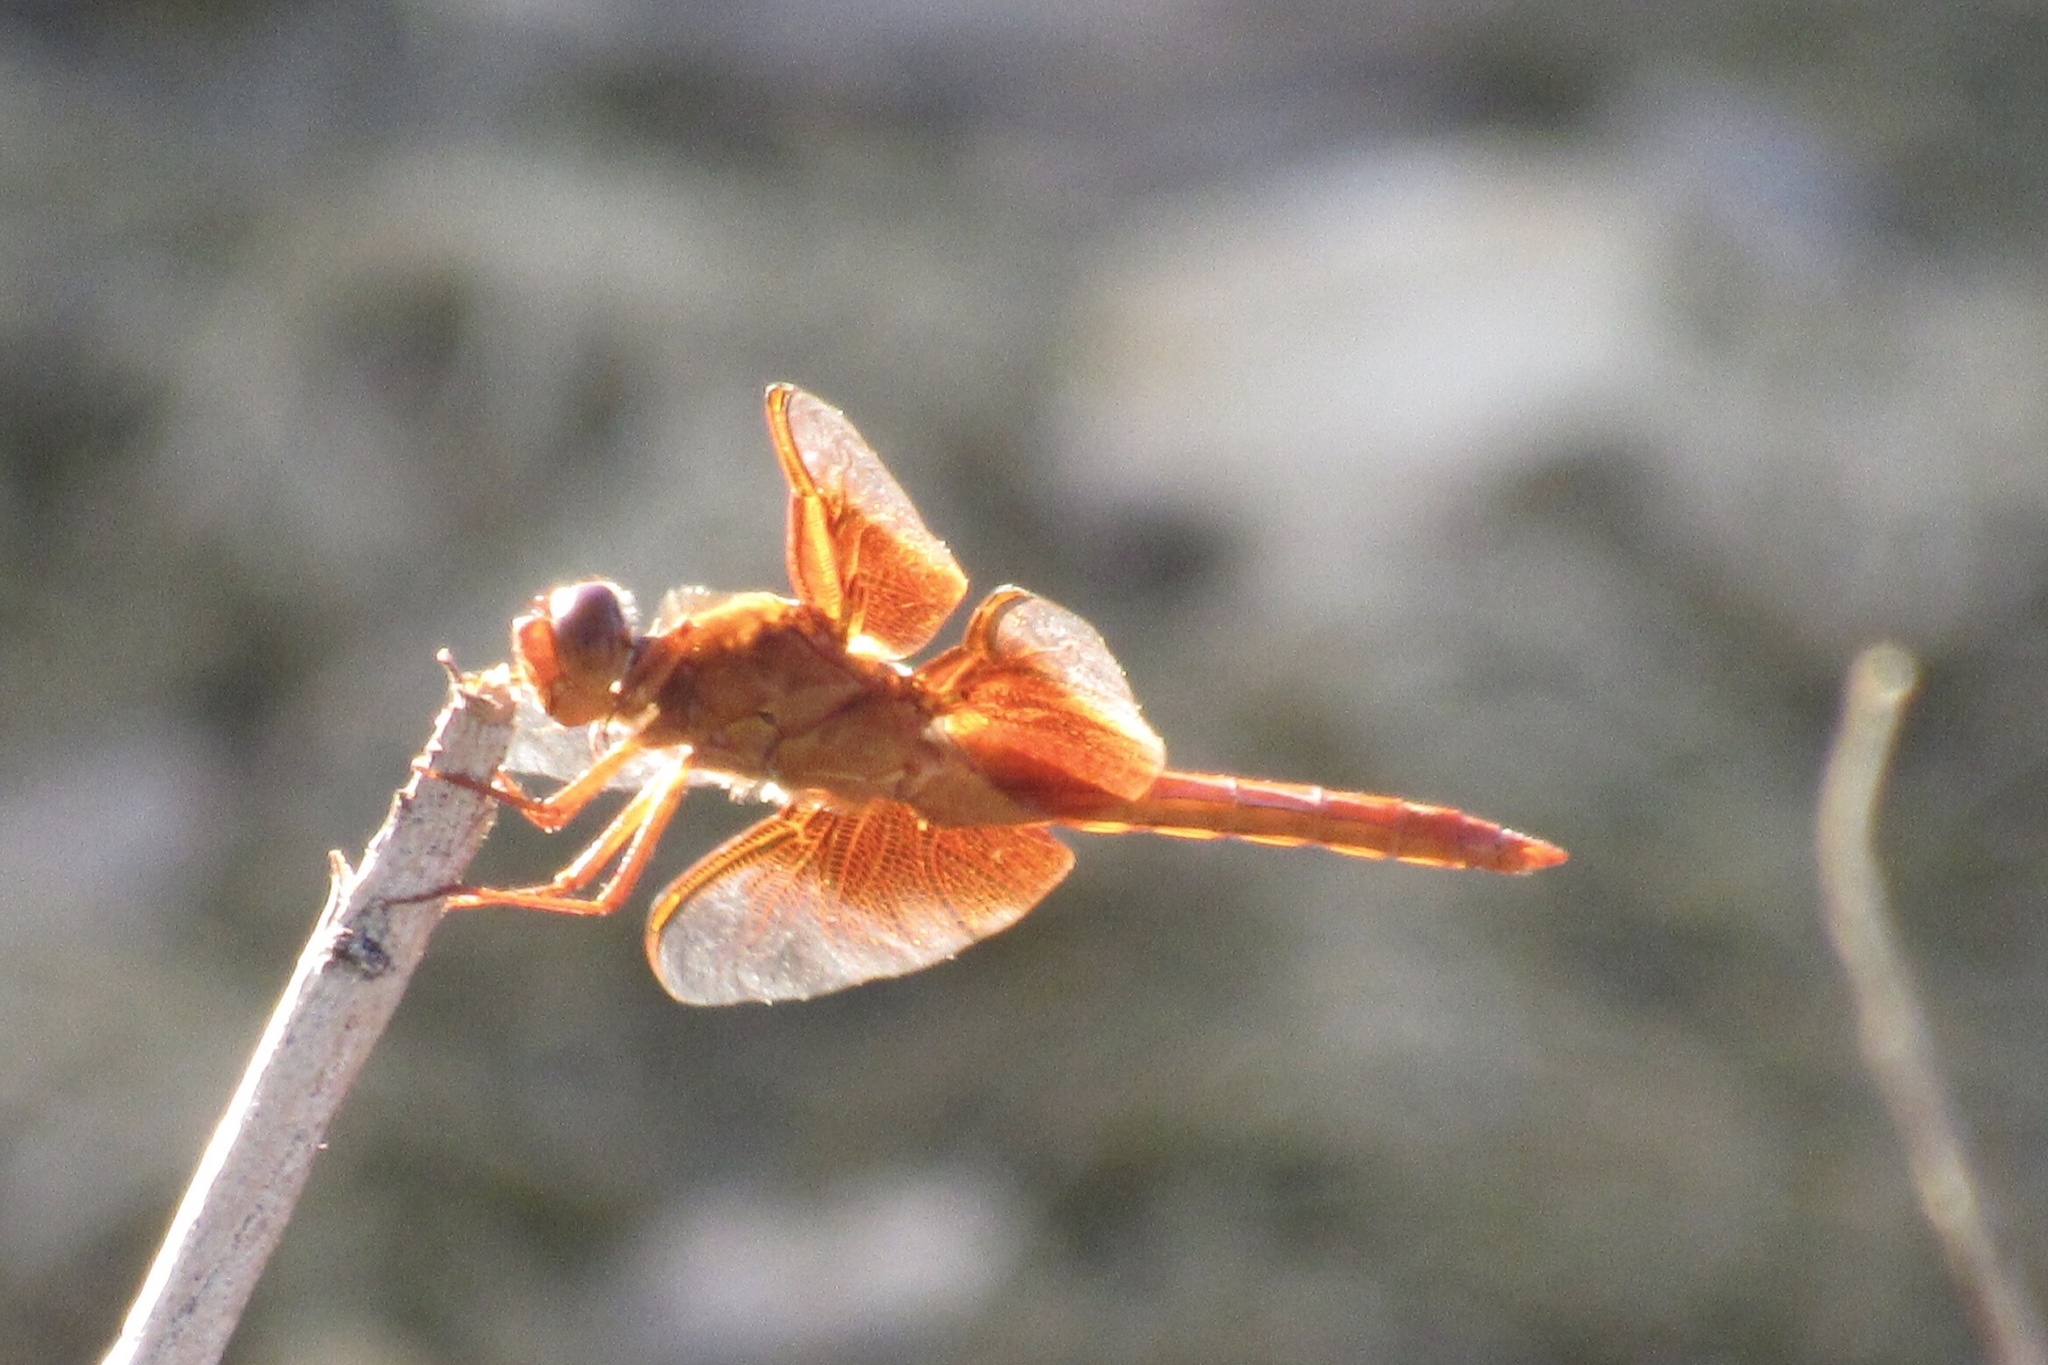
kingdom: Animalia
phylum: Arthropoda
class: Insecta
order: Odonata
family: Libellulidae
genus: Libellula
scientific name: Libellula saturata
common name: Flame skimmer
